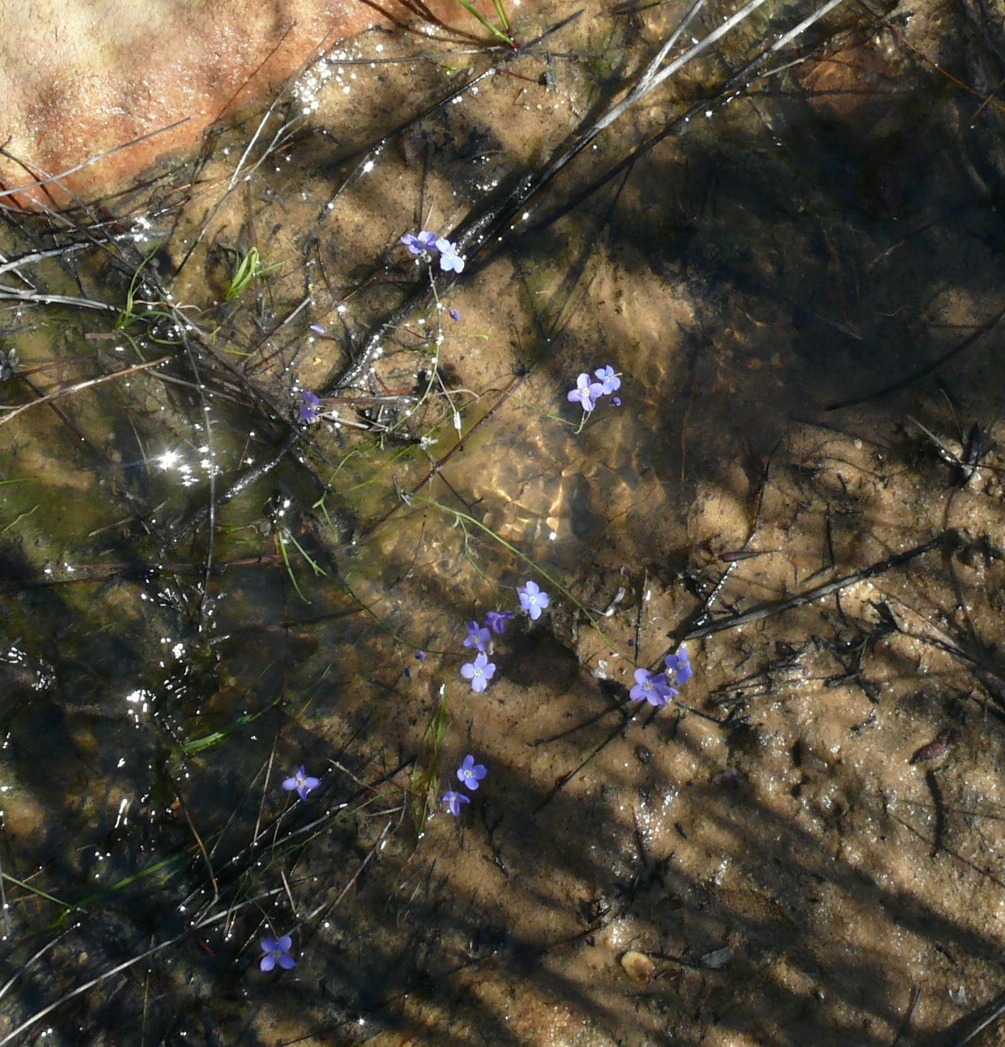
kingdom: Plantae
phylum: Tracheophyta
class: Magnoliopsida
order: Brassicales
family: Brassicaceae
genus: Heliophila
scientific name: Heliophila pinnata
